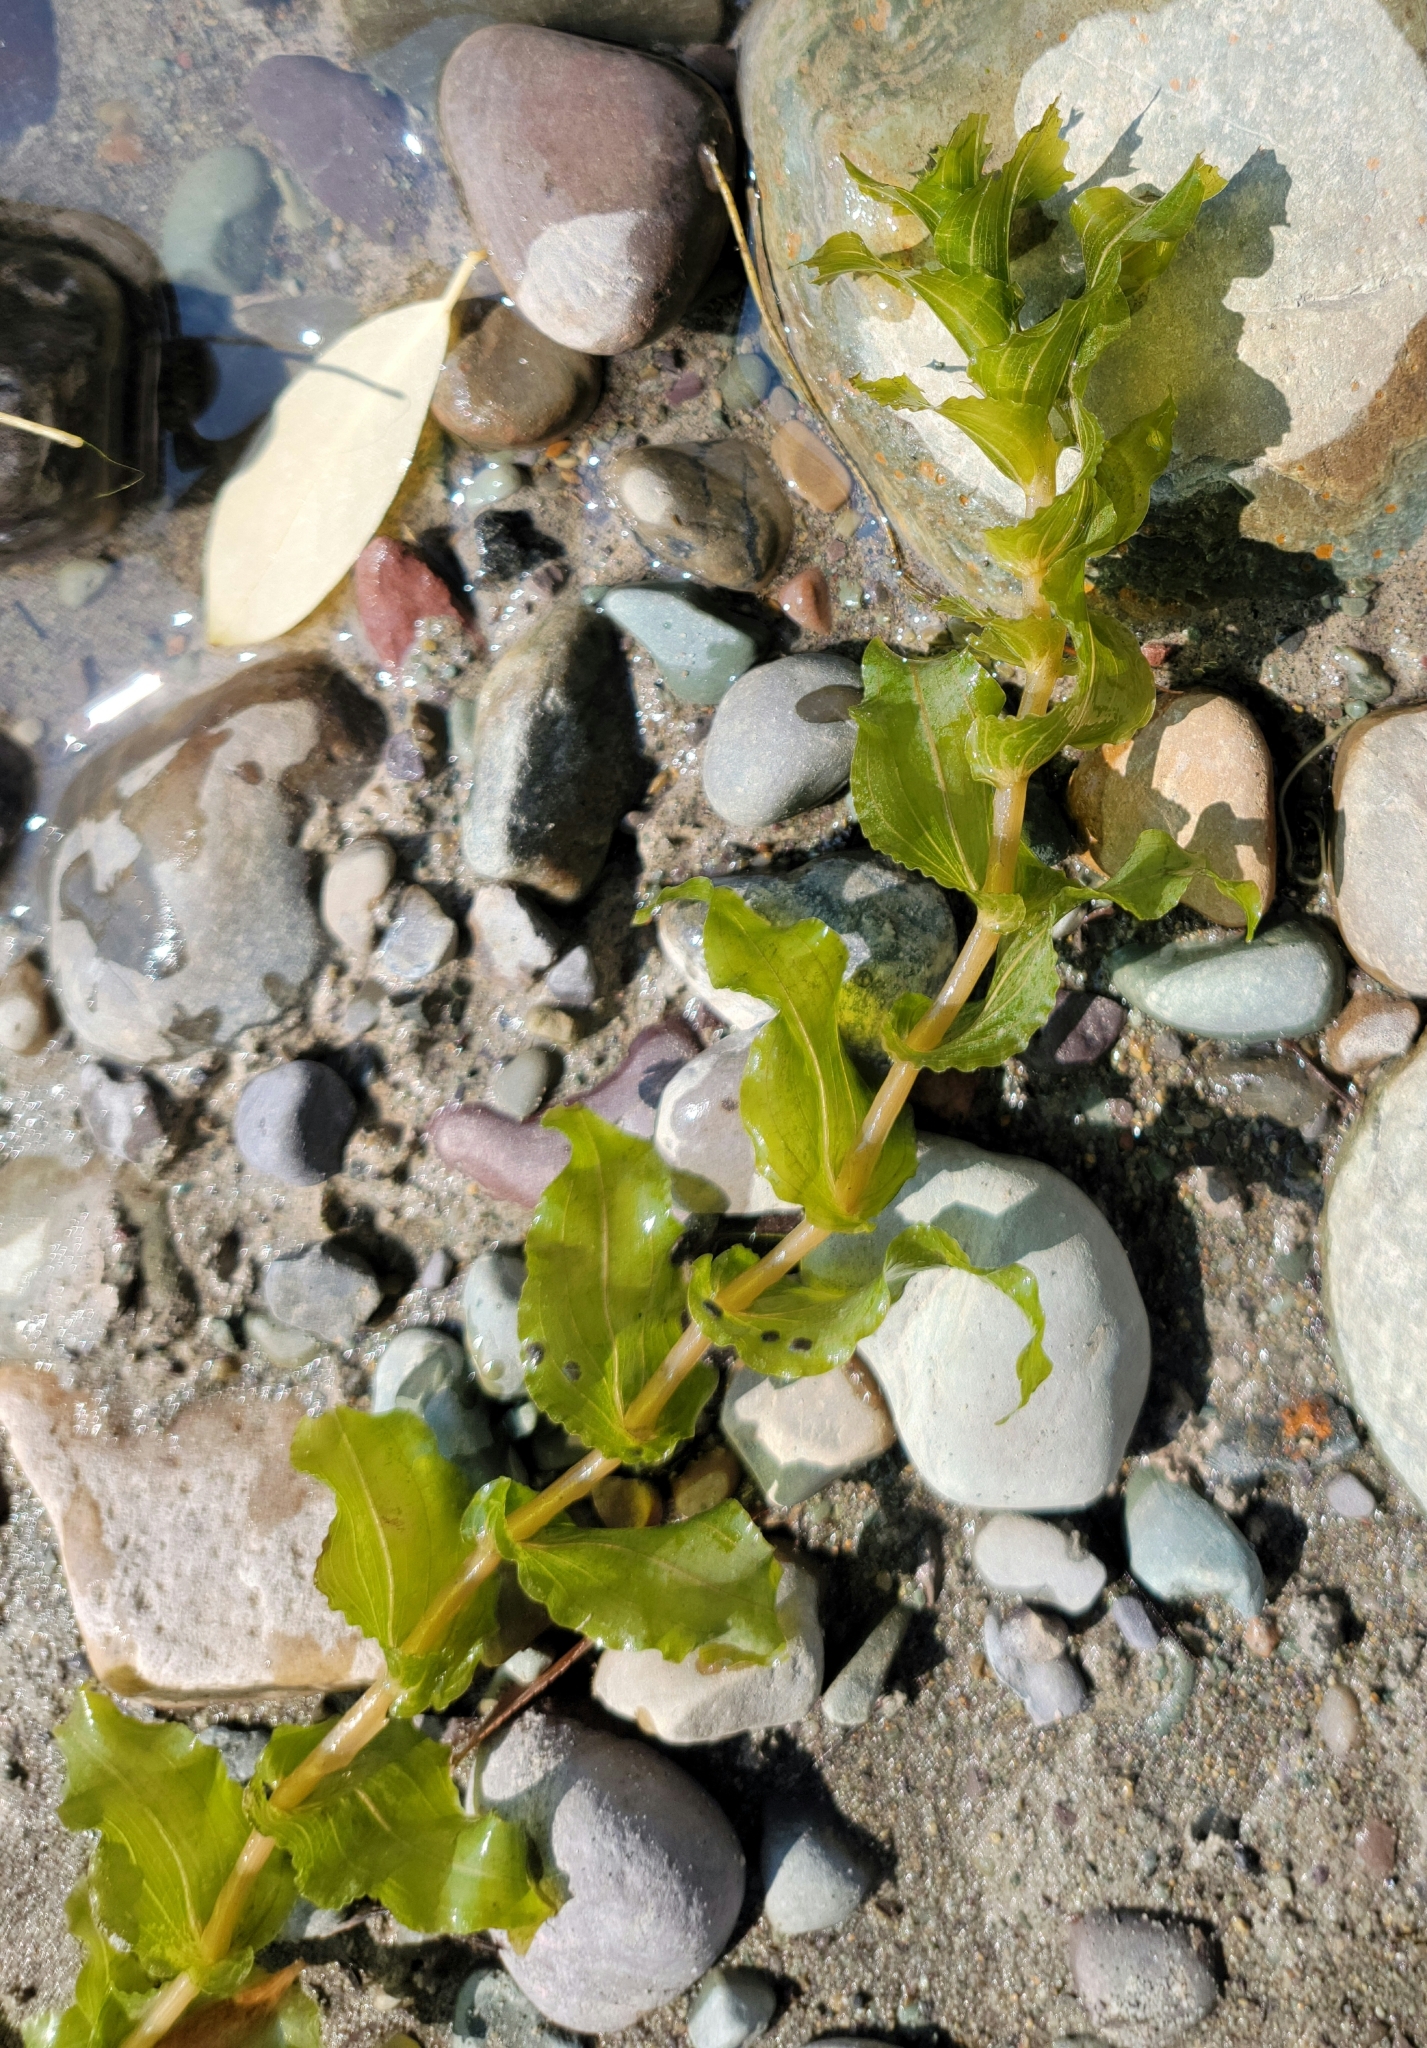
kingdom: Plantae
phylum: Tracheophyta
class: Liliopsida
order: Alismatales
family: Potamogetonaceae
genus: Potamogeton
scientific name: Potamogeton richardsonii
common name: Richardson's pondweed
